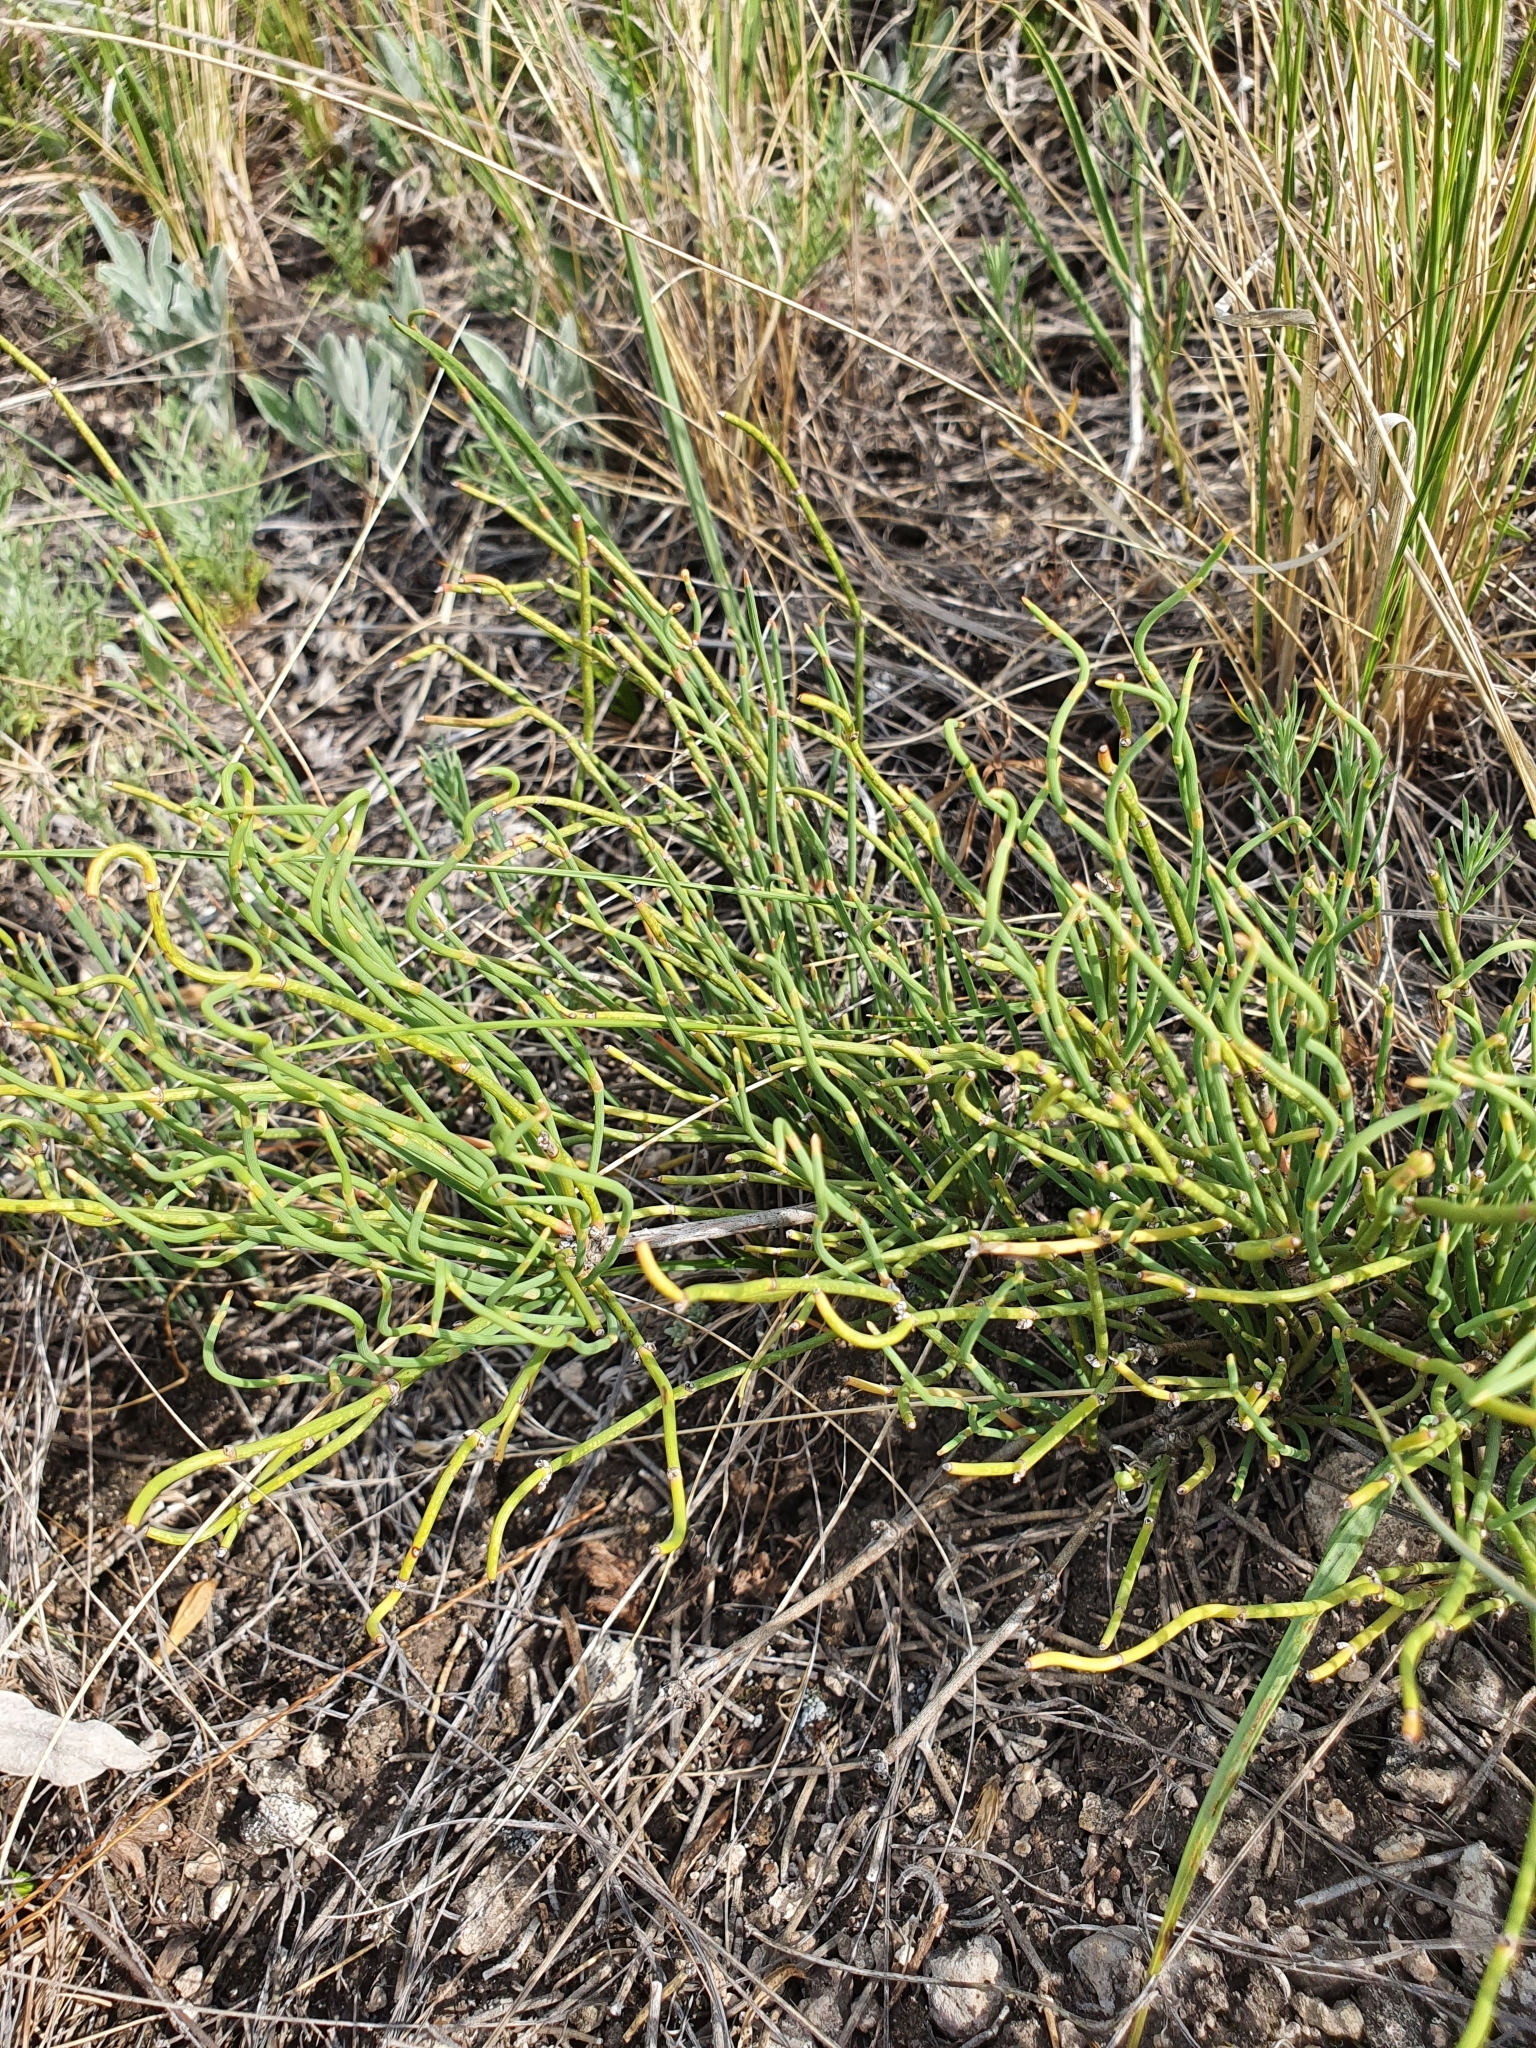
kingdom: Plantae
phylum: Tracheophyta
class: Gnetopsida
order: Ephedrales
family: Ephedraceae
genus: Ephedra
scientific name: Ephedra distachya
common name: Sea grape
